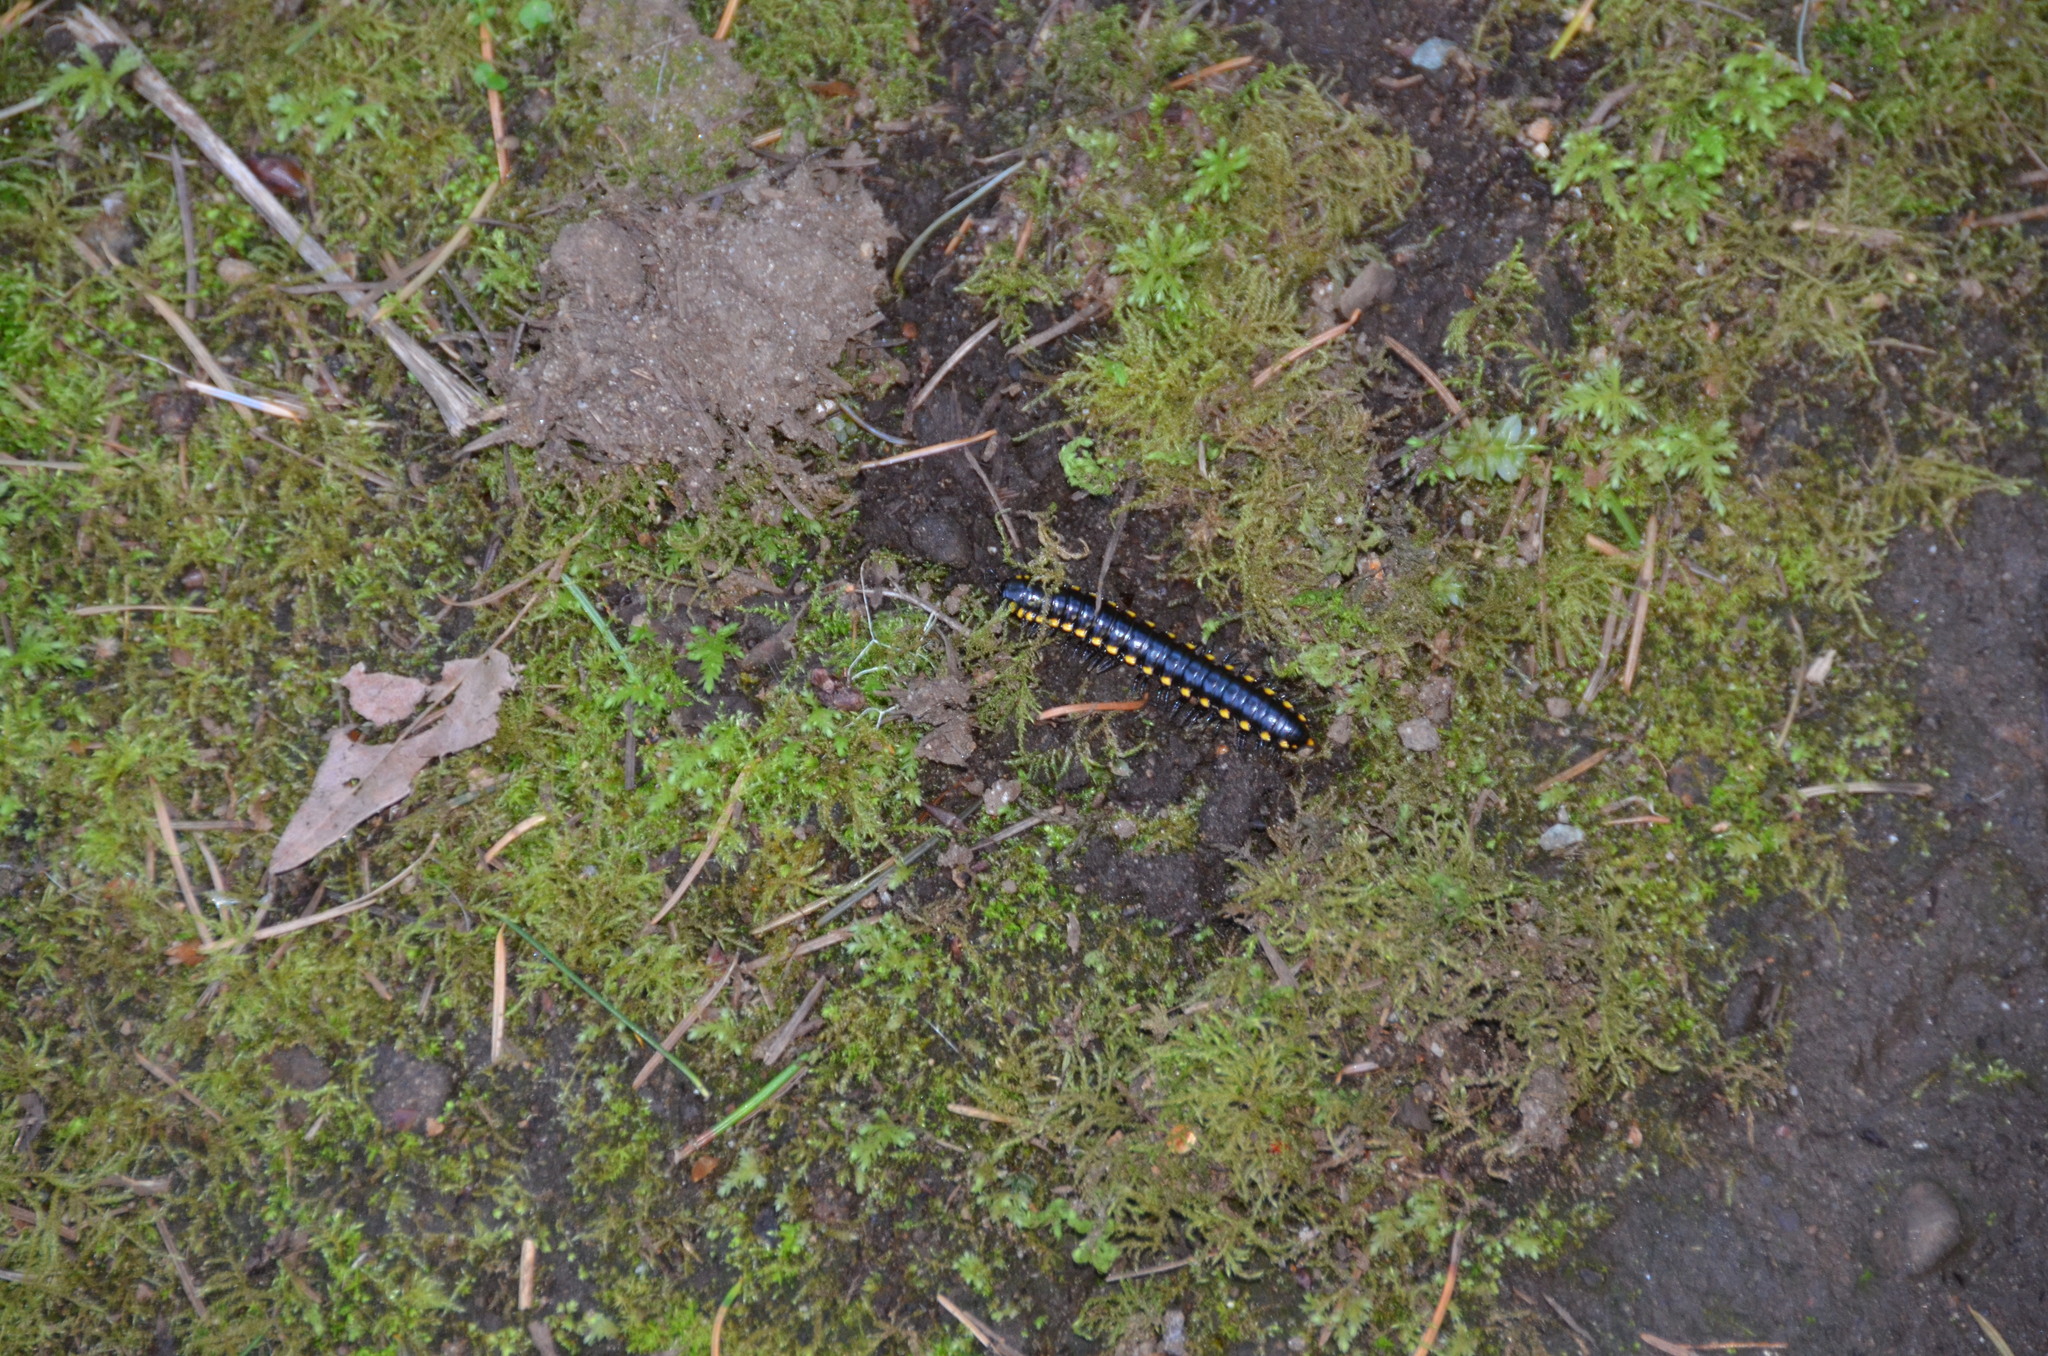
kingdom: Animalia
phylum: Arthropoda
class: Diplopoda
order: Polydesmida
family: Xystodesmidae
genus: Harpaphe
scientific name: Harpaphe haydeniana
